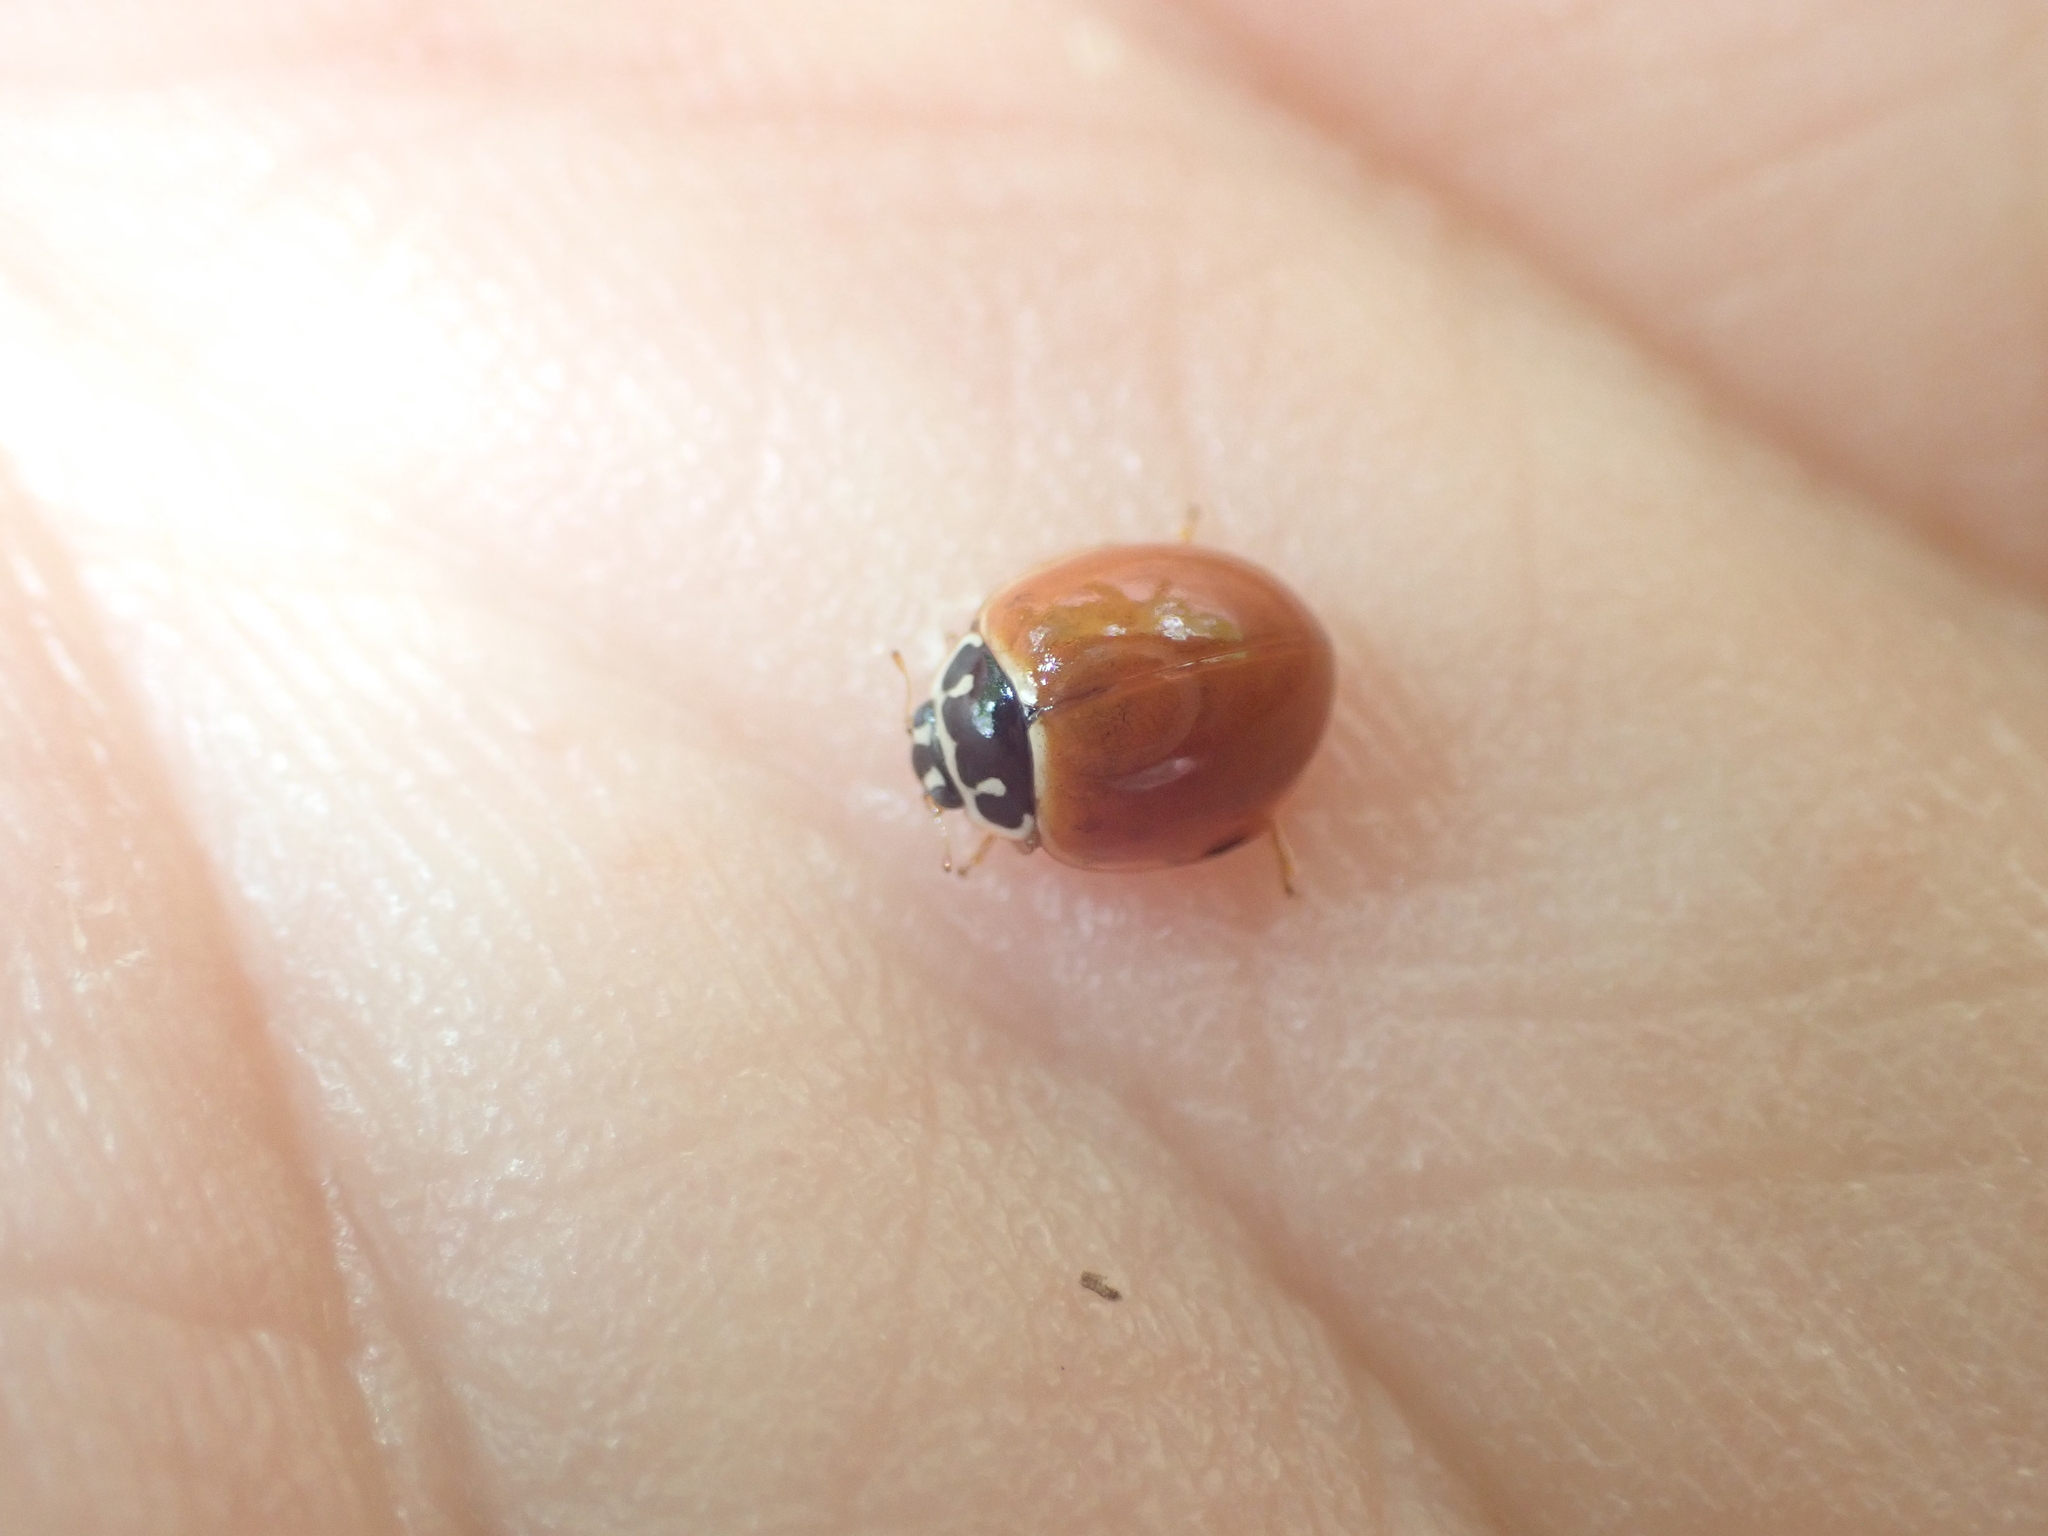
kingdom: Animalia
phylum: Arthropoda
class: Insecta
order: Coleoptera
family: Coccinellidae
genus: Cycloneda
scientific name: Cycloneda munda
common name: Polished lady beetle
